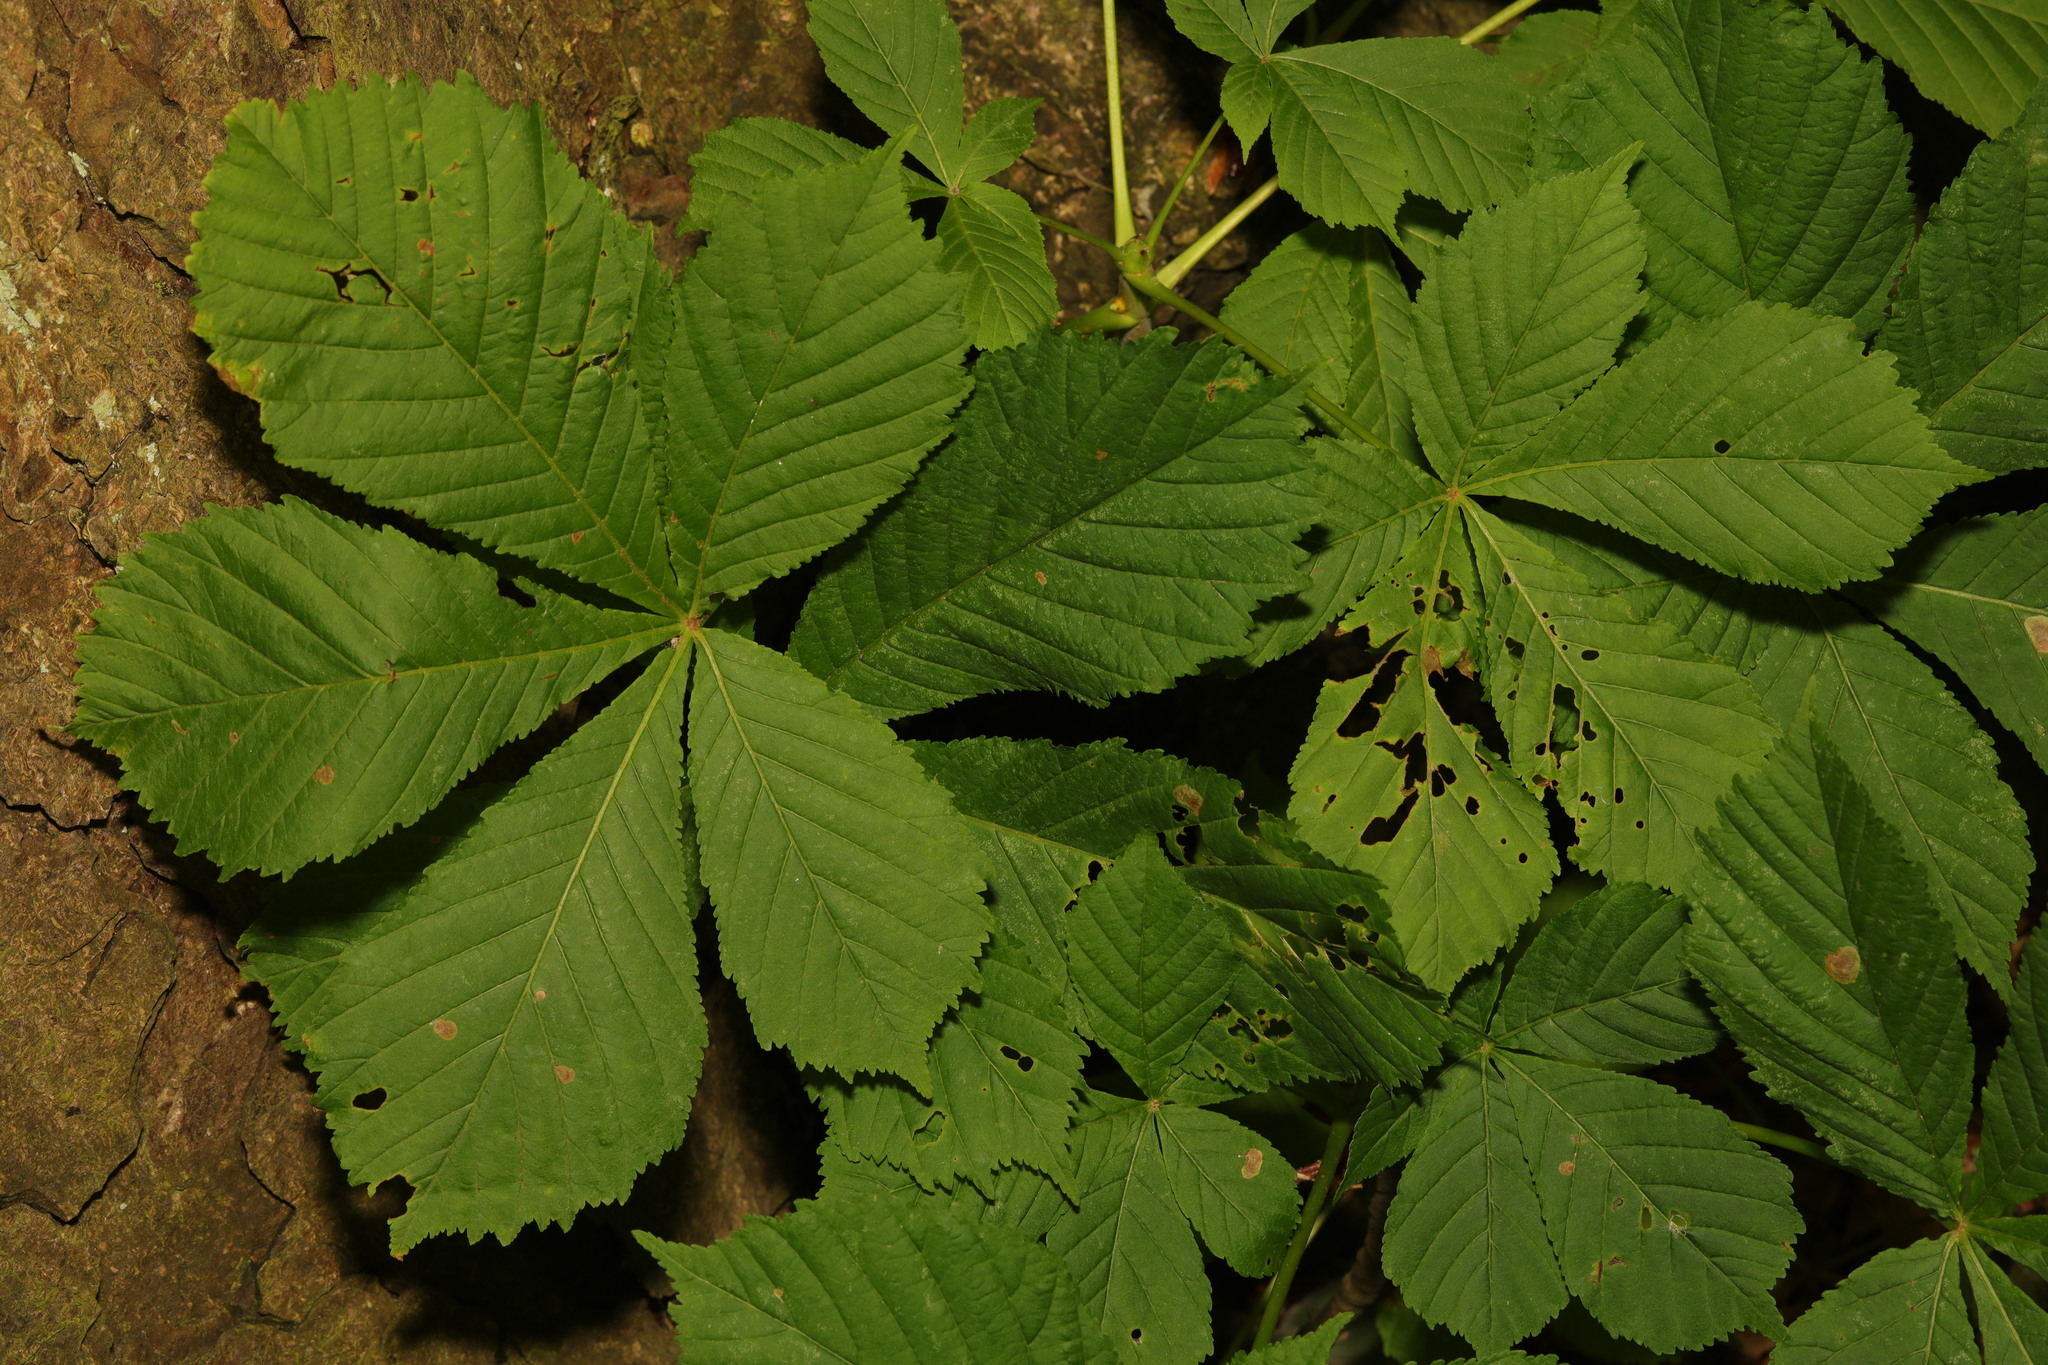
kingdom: Plantae
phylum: Tracheophyta
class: Magnoliopsida
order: Sapindales
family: Sapindaceae
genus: Aesculus
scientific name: Aesculus hippocastanum
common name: Horse-chestnut
